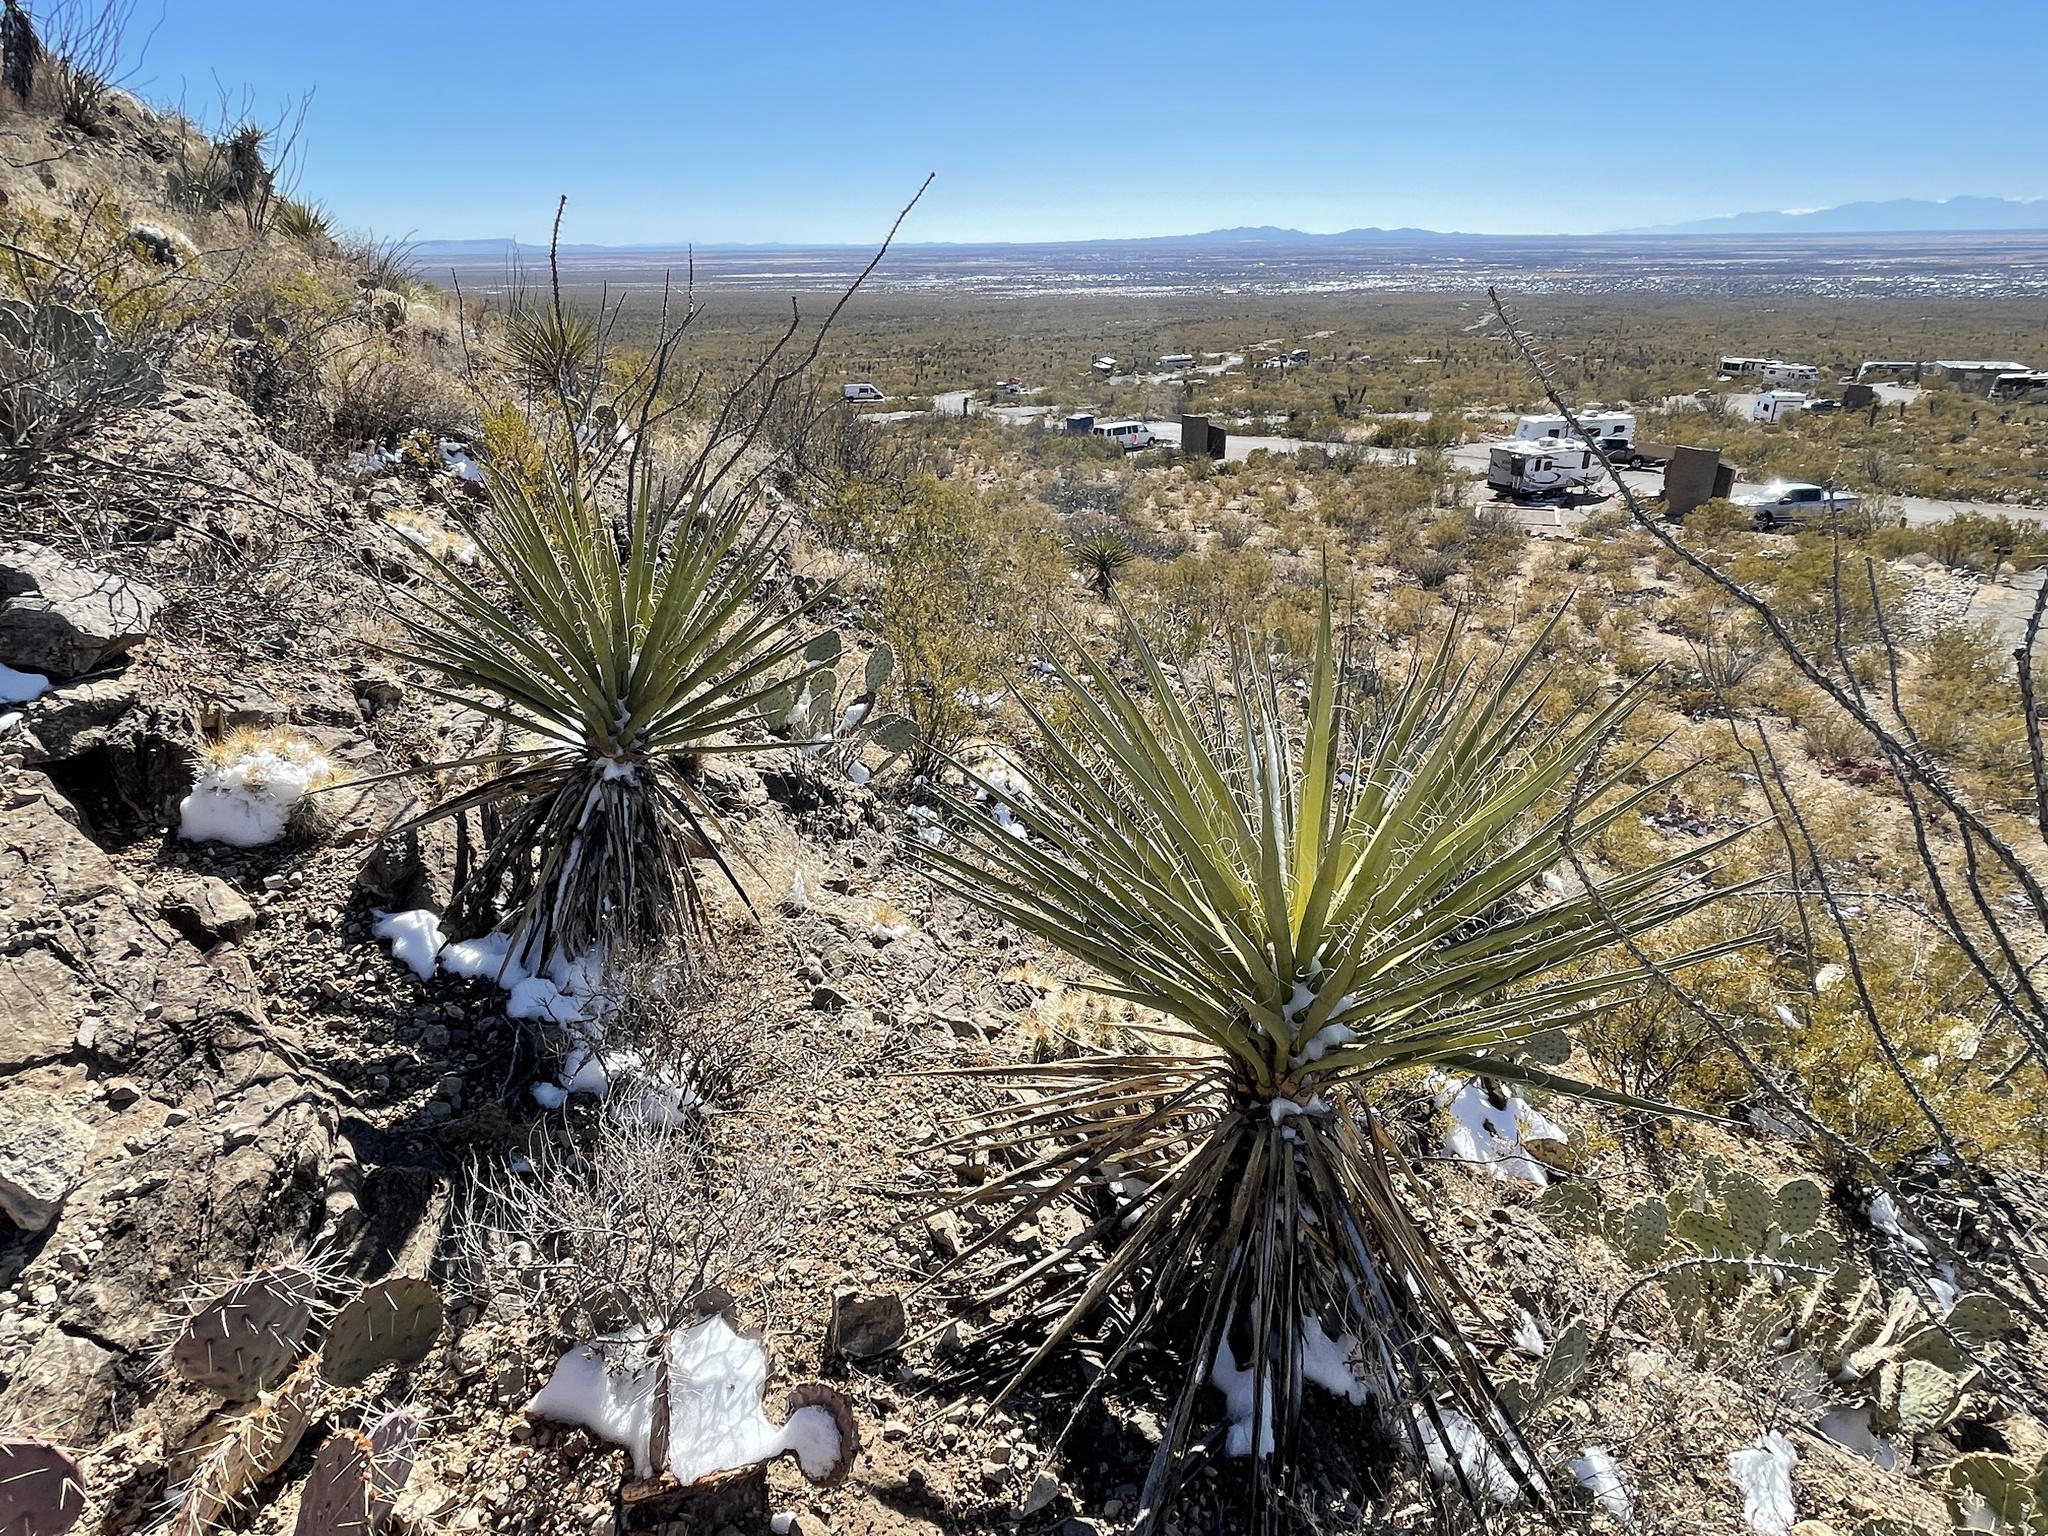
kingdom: Plantae
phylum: Tracheophyta
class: Liliopsida
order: Asparagales
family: Asparagaceae
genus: Yucca
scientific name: Yucca treculiana
